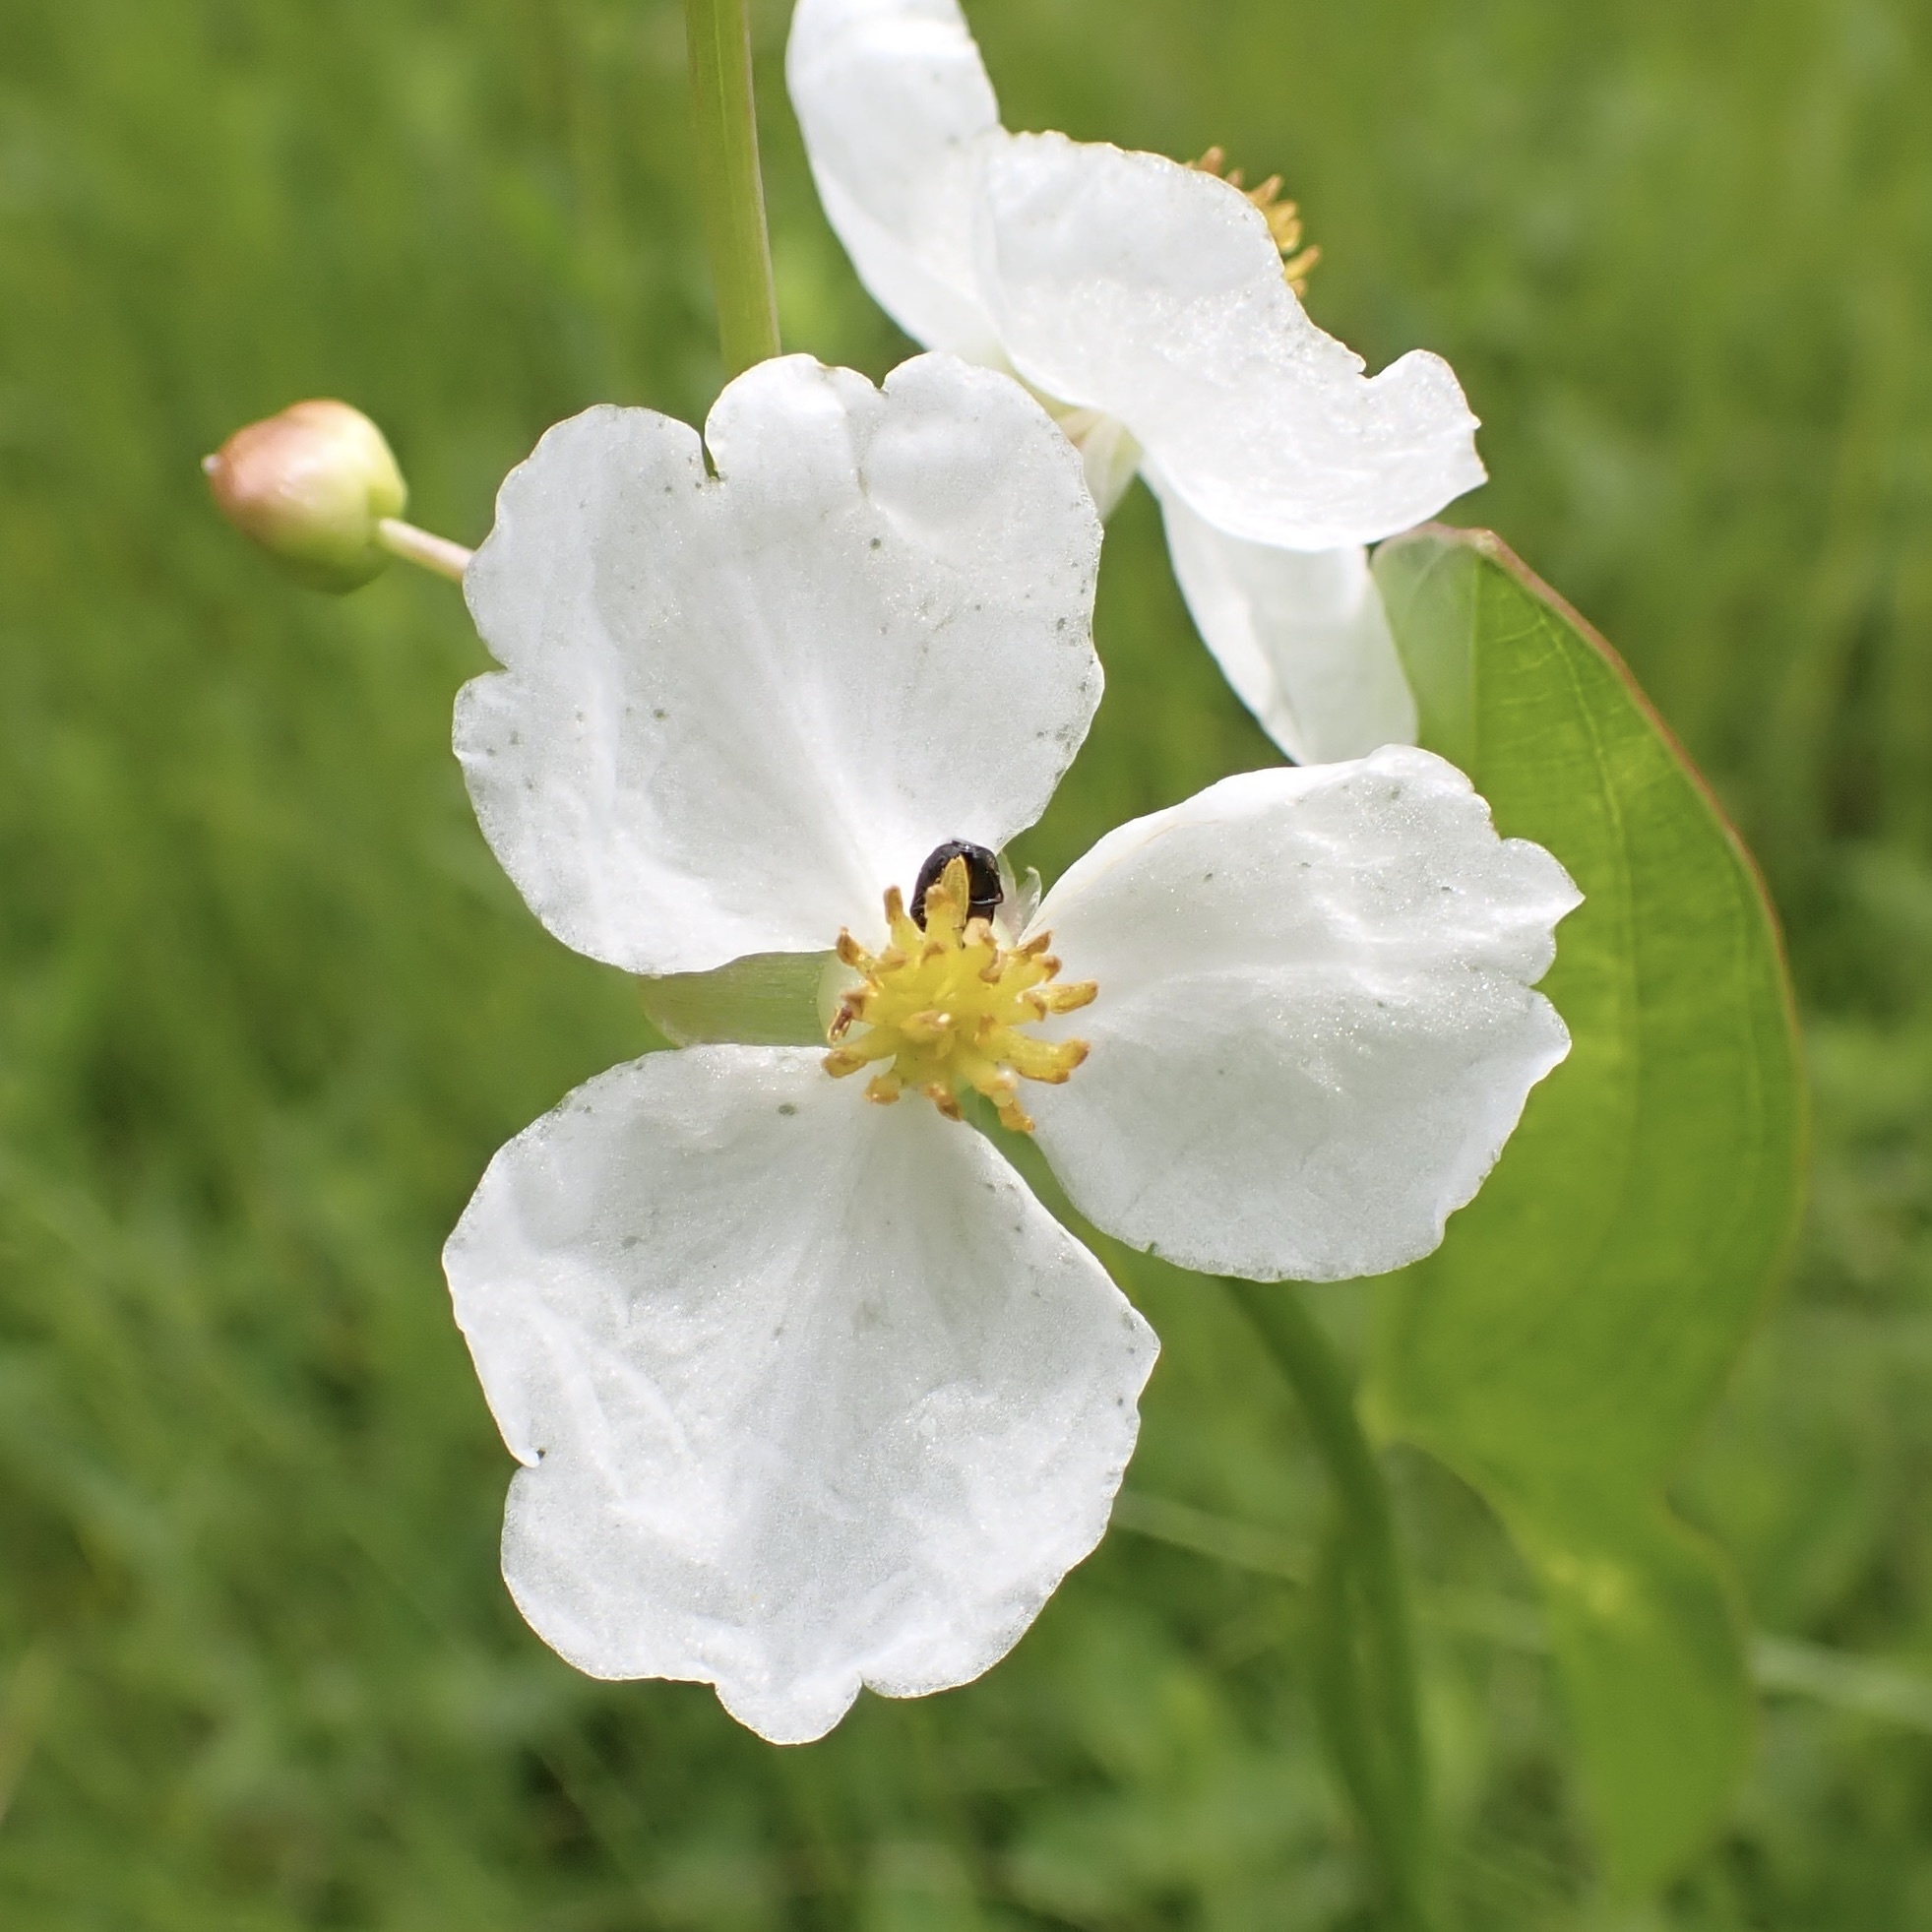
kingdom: Plantae
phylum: Tracheophyta
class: Liliopsida
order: Alismatales
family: Alismataceae
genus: Sagittaria
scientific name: Sagittaria latifolia
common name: Duck-potato
